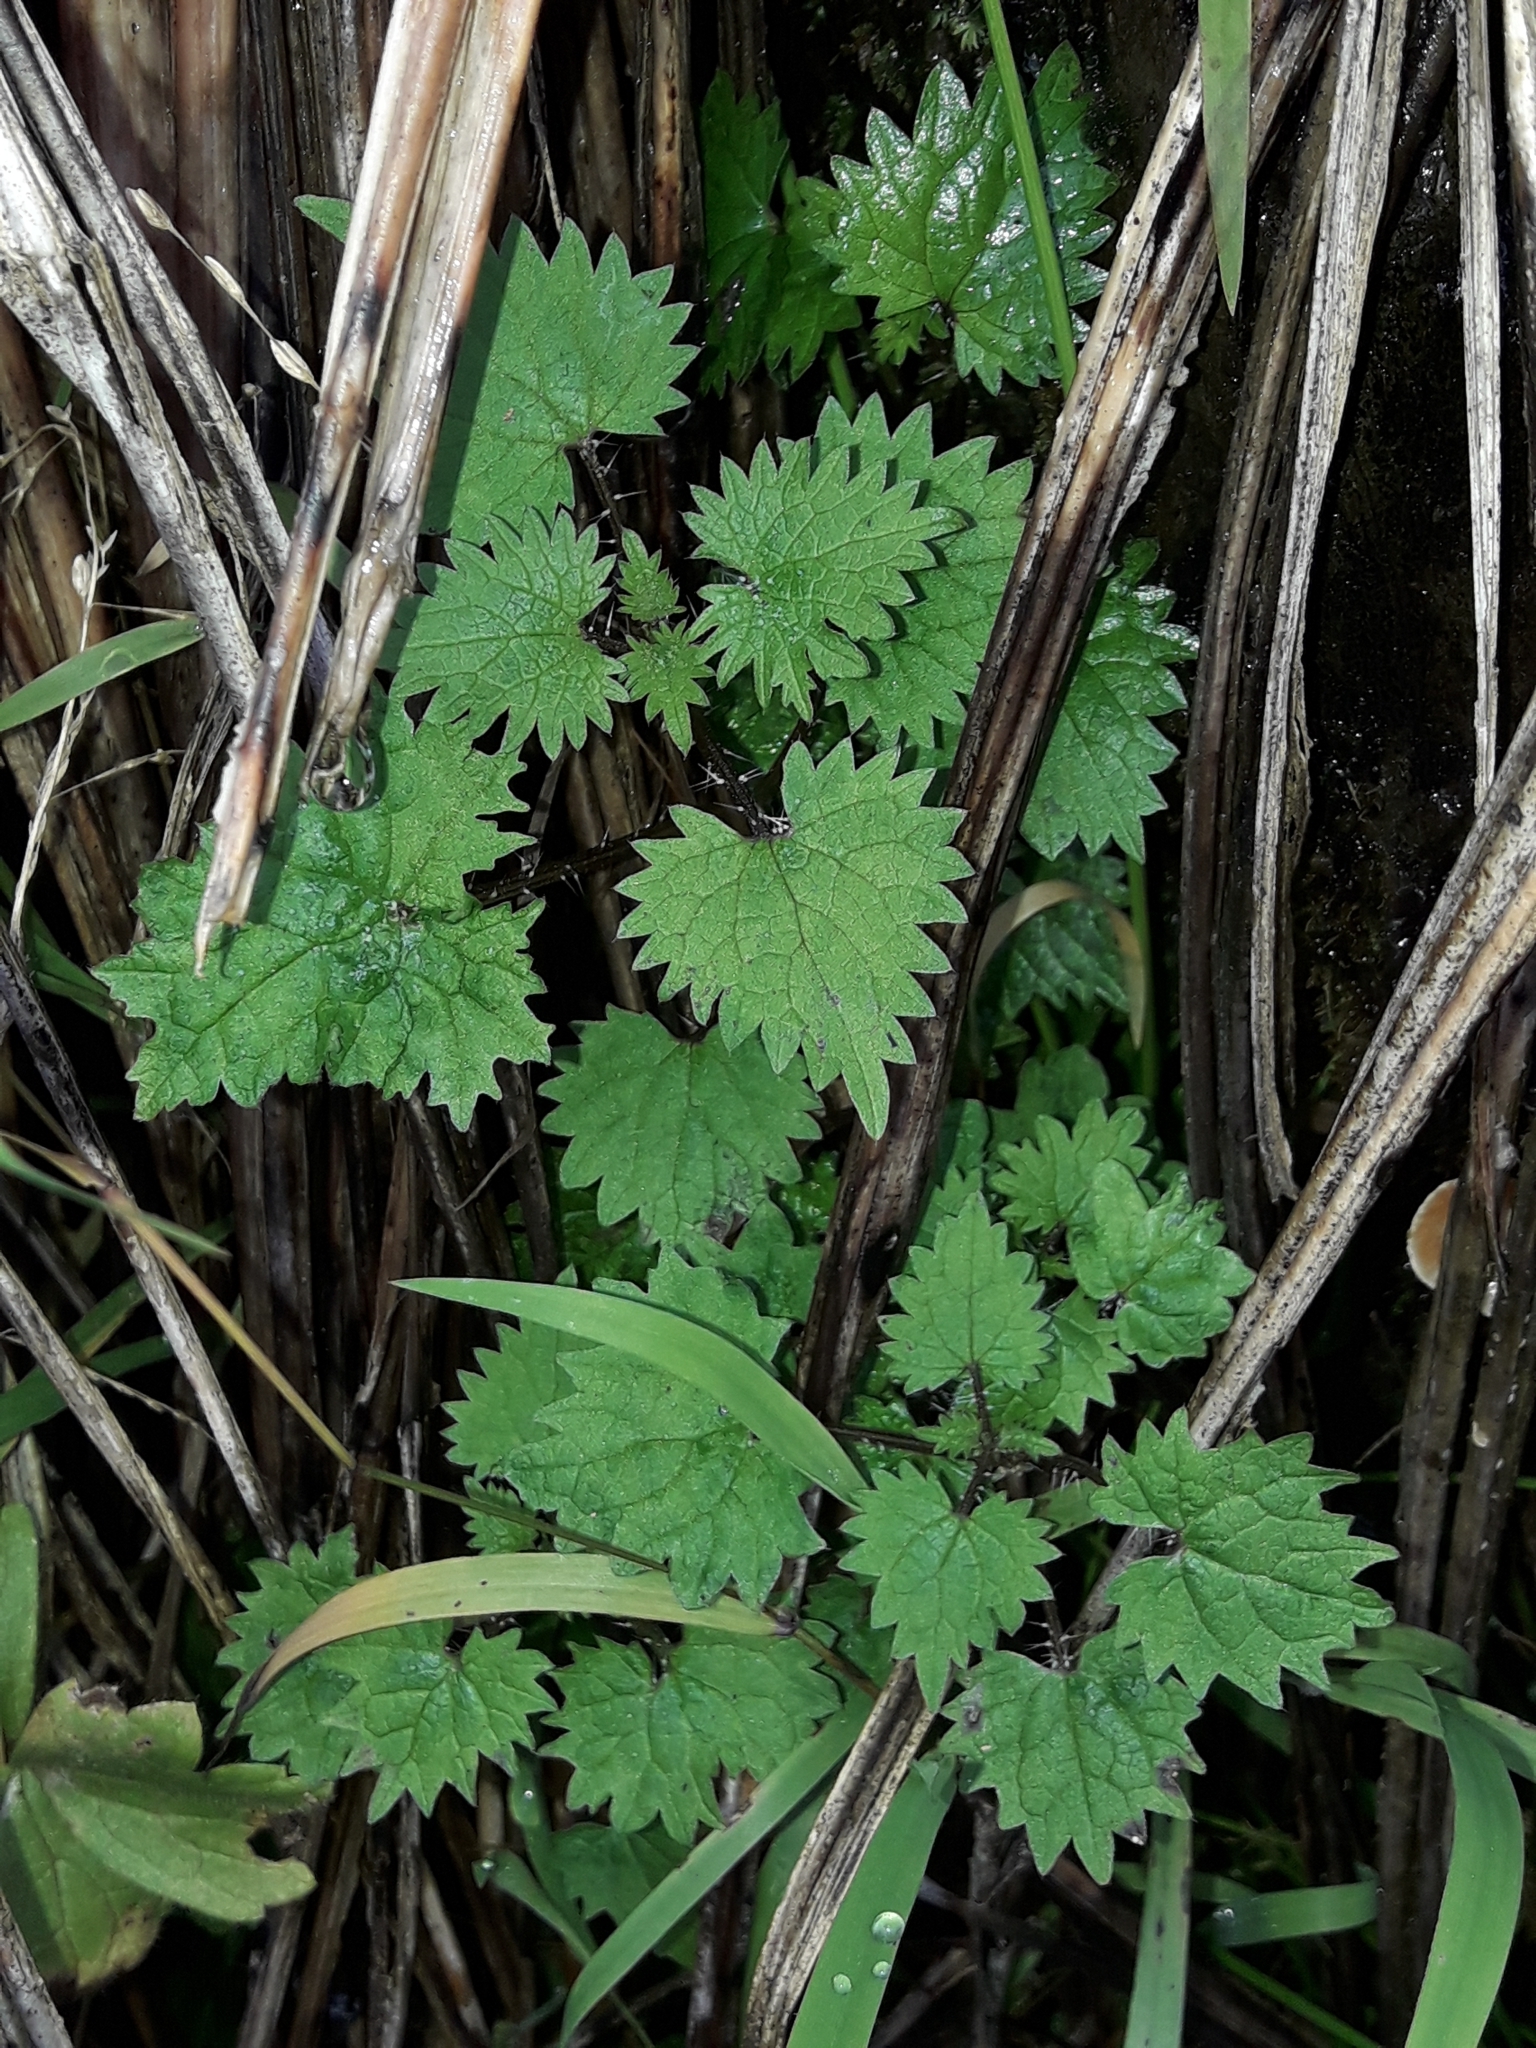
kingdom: Plantae
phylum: Tracheophyta
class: Magnoliopsida
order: Rosales
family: Urticaceae
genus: Urtica
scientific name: Urtica sykesii
